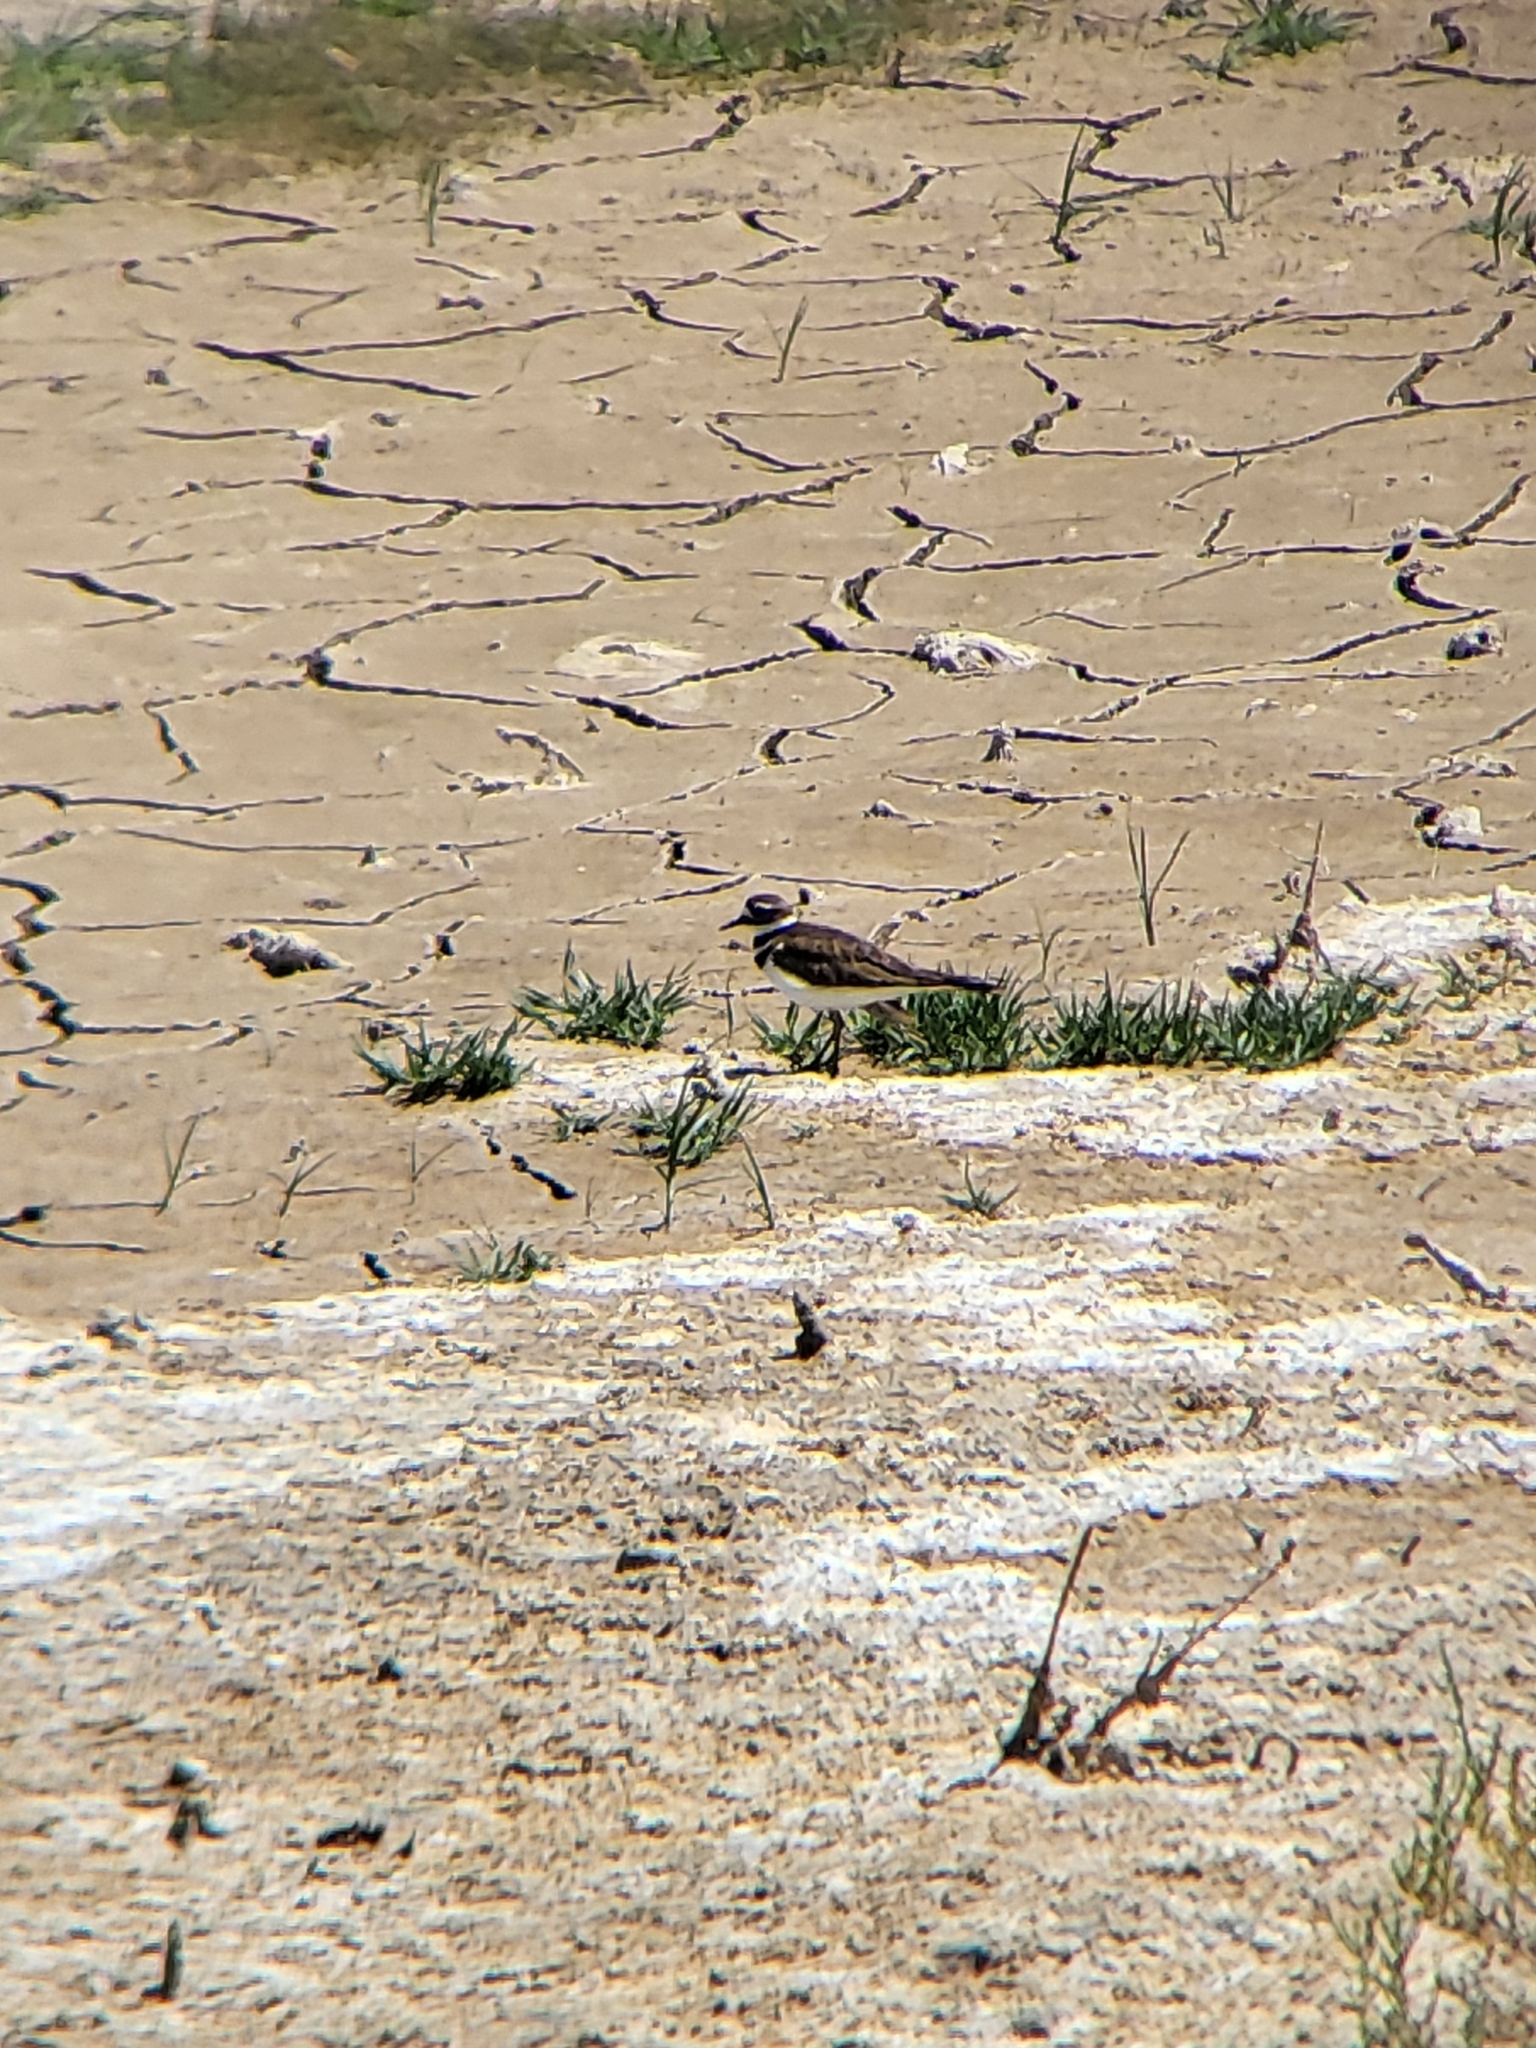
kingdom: Animalia
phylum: Chordata
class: Aves
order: Charadriiformes
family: Charadriidae
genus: Charadrius
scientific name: Charadrius vociferus
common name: Killdeer
